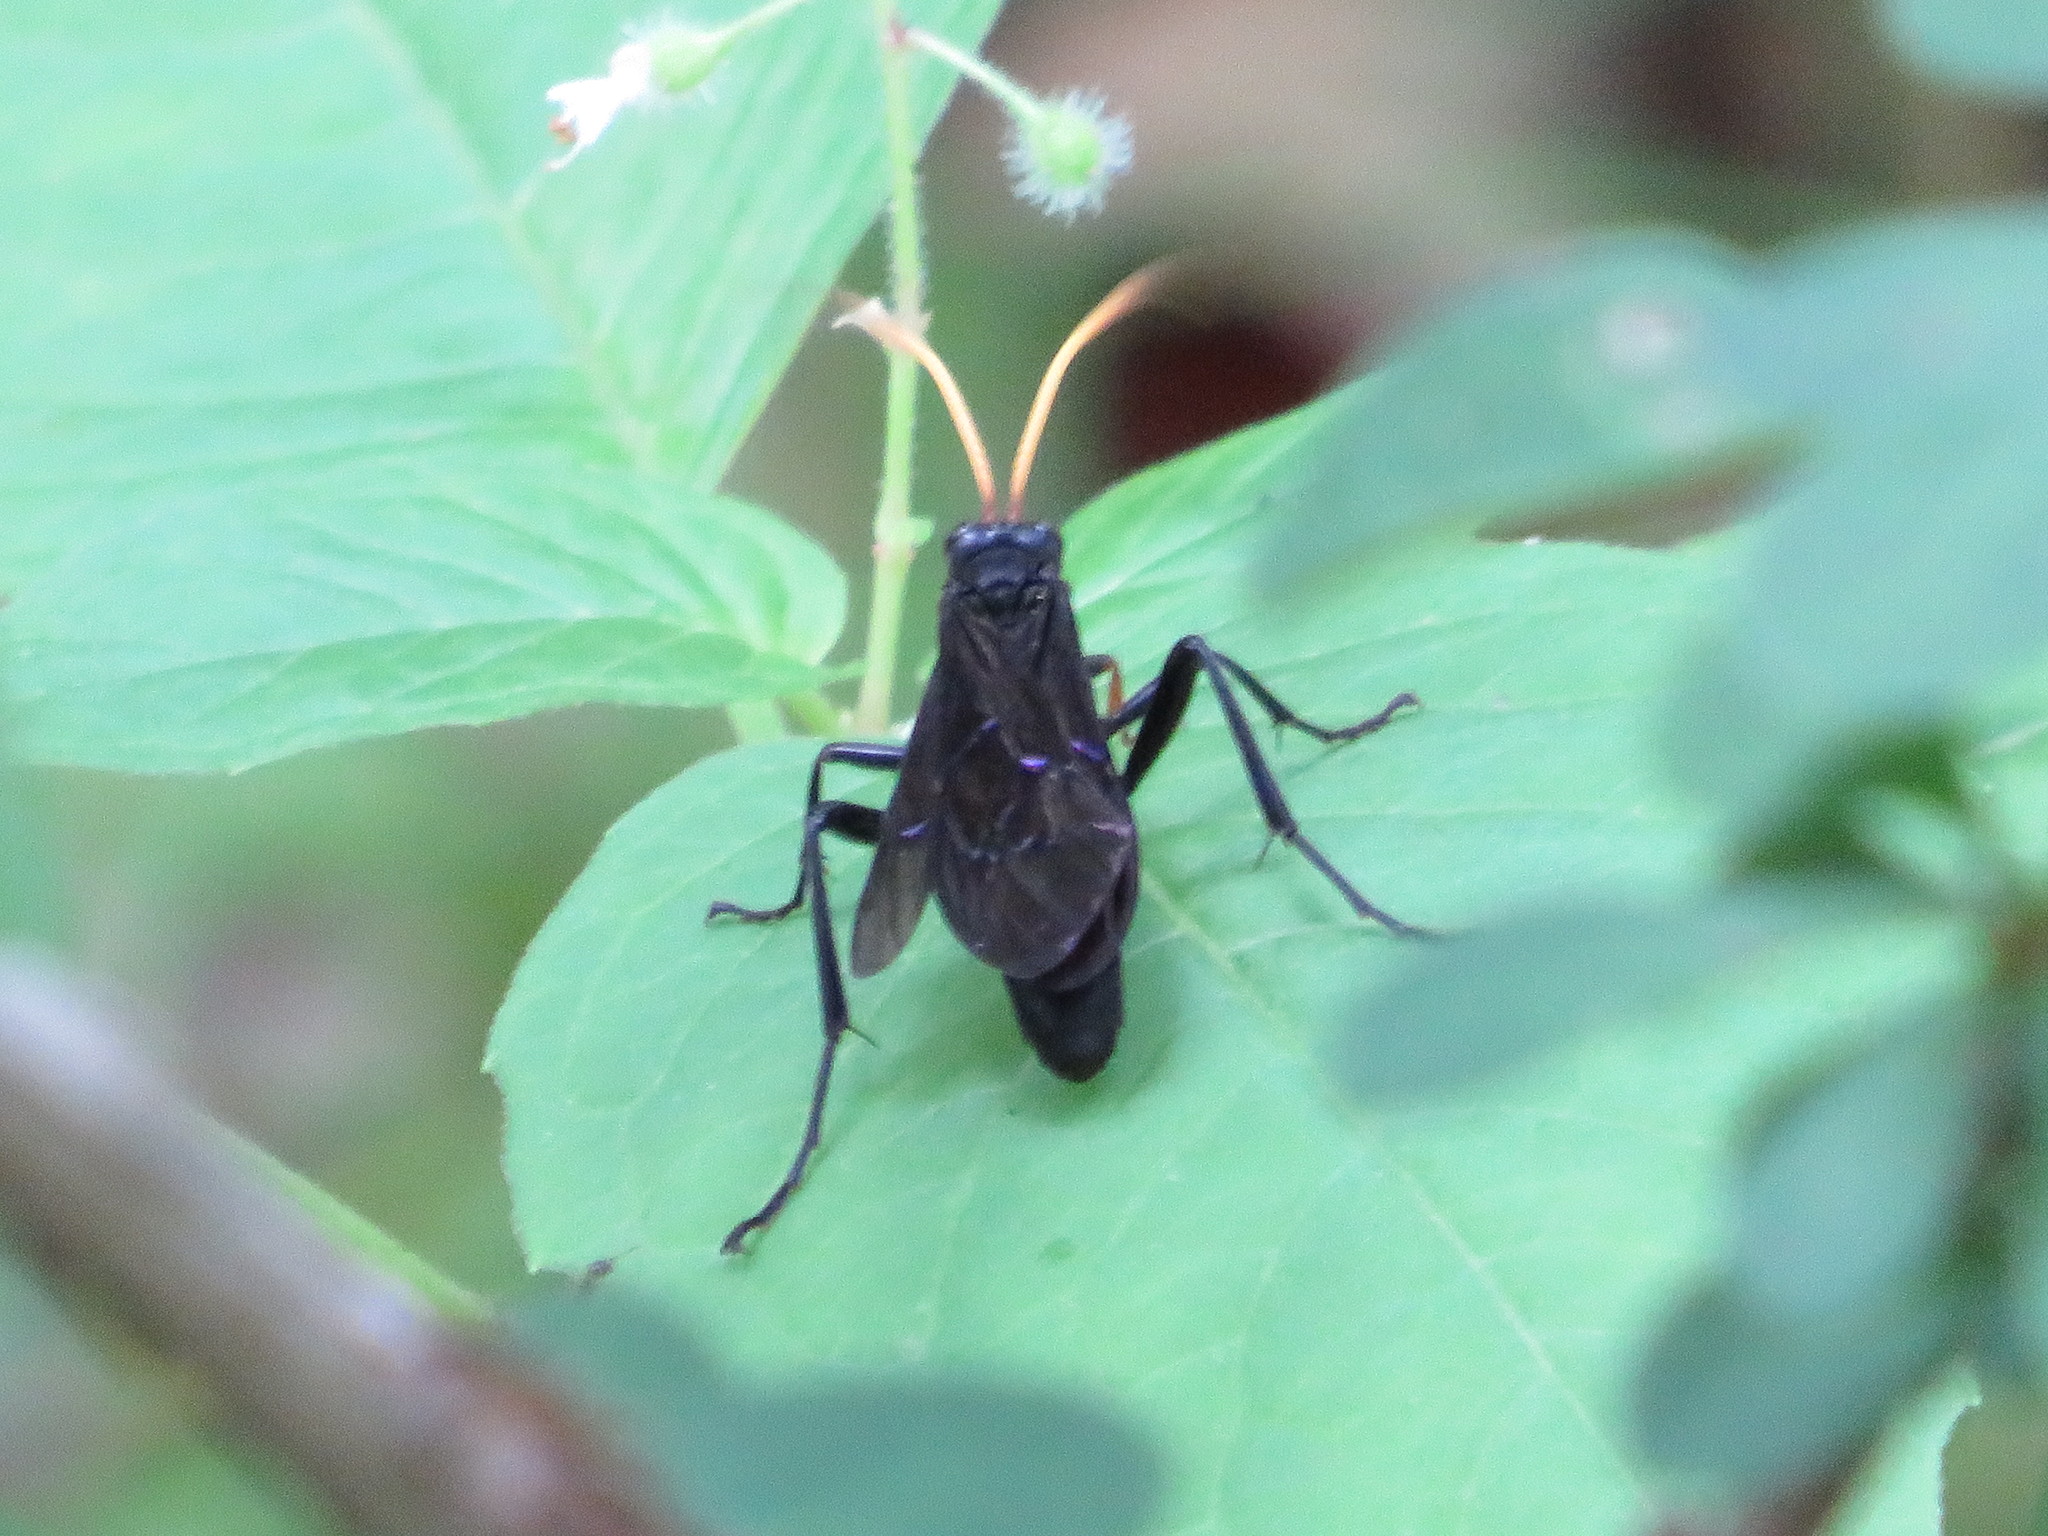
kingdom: Animalia
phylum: Arthropoda
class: Insecta
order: Hymenoptera
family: Ichneumonidae
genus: Gnamptopelta
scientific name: Gnamptopelta obsidianator
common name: Bent-shielded besieger wasp
